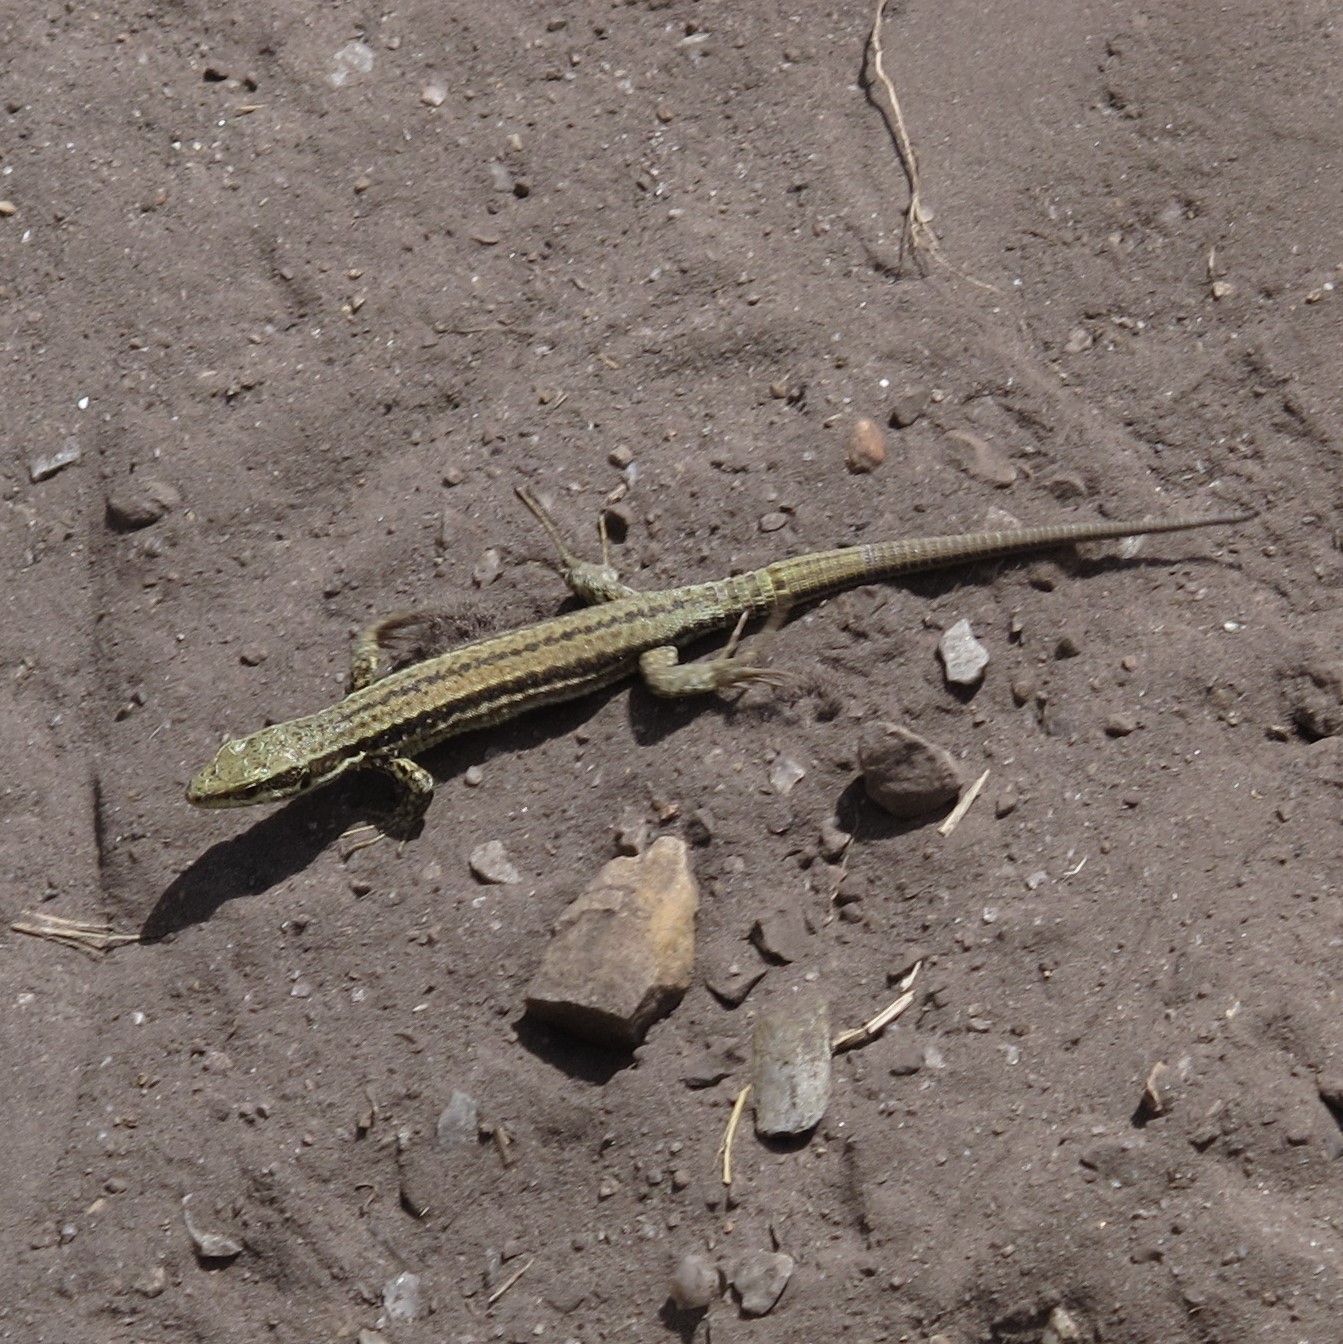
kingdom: Animalia
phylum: Chordata
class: Squamata
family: Lacertidae
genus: Podarcis
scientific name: Podarcis muralis
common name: Common wall lizard
